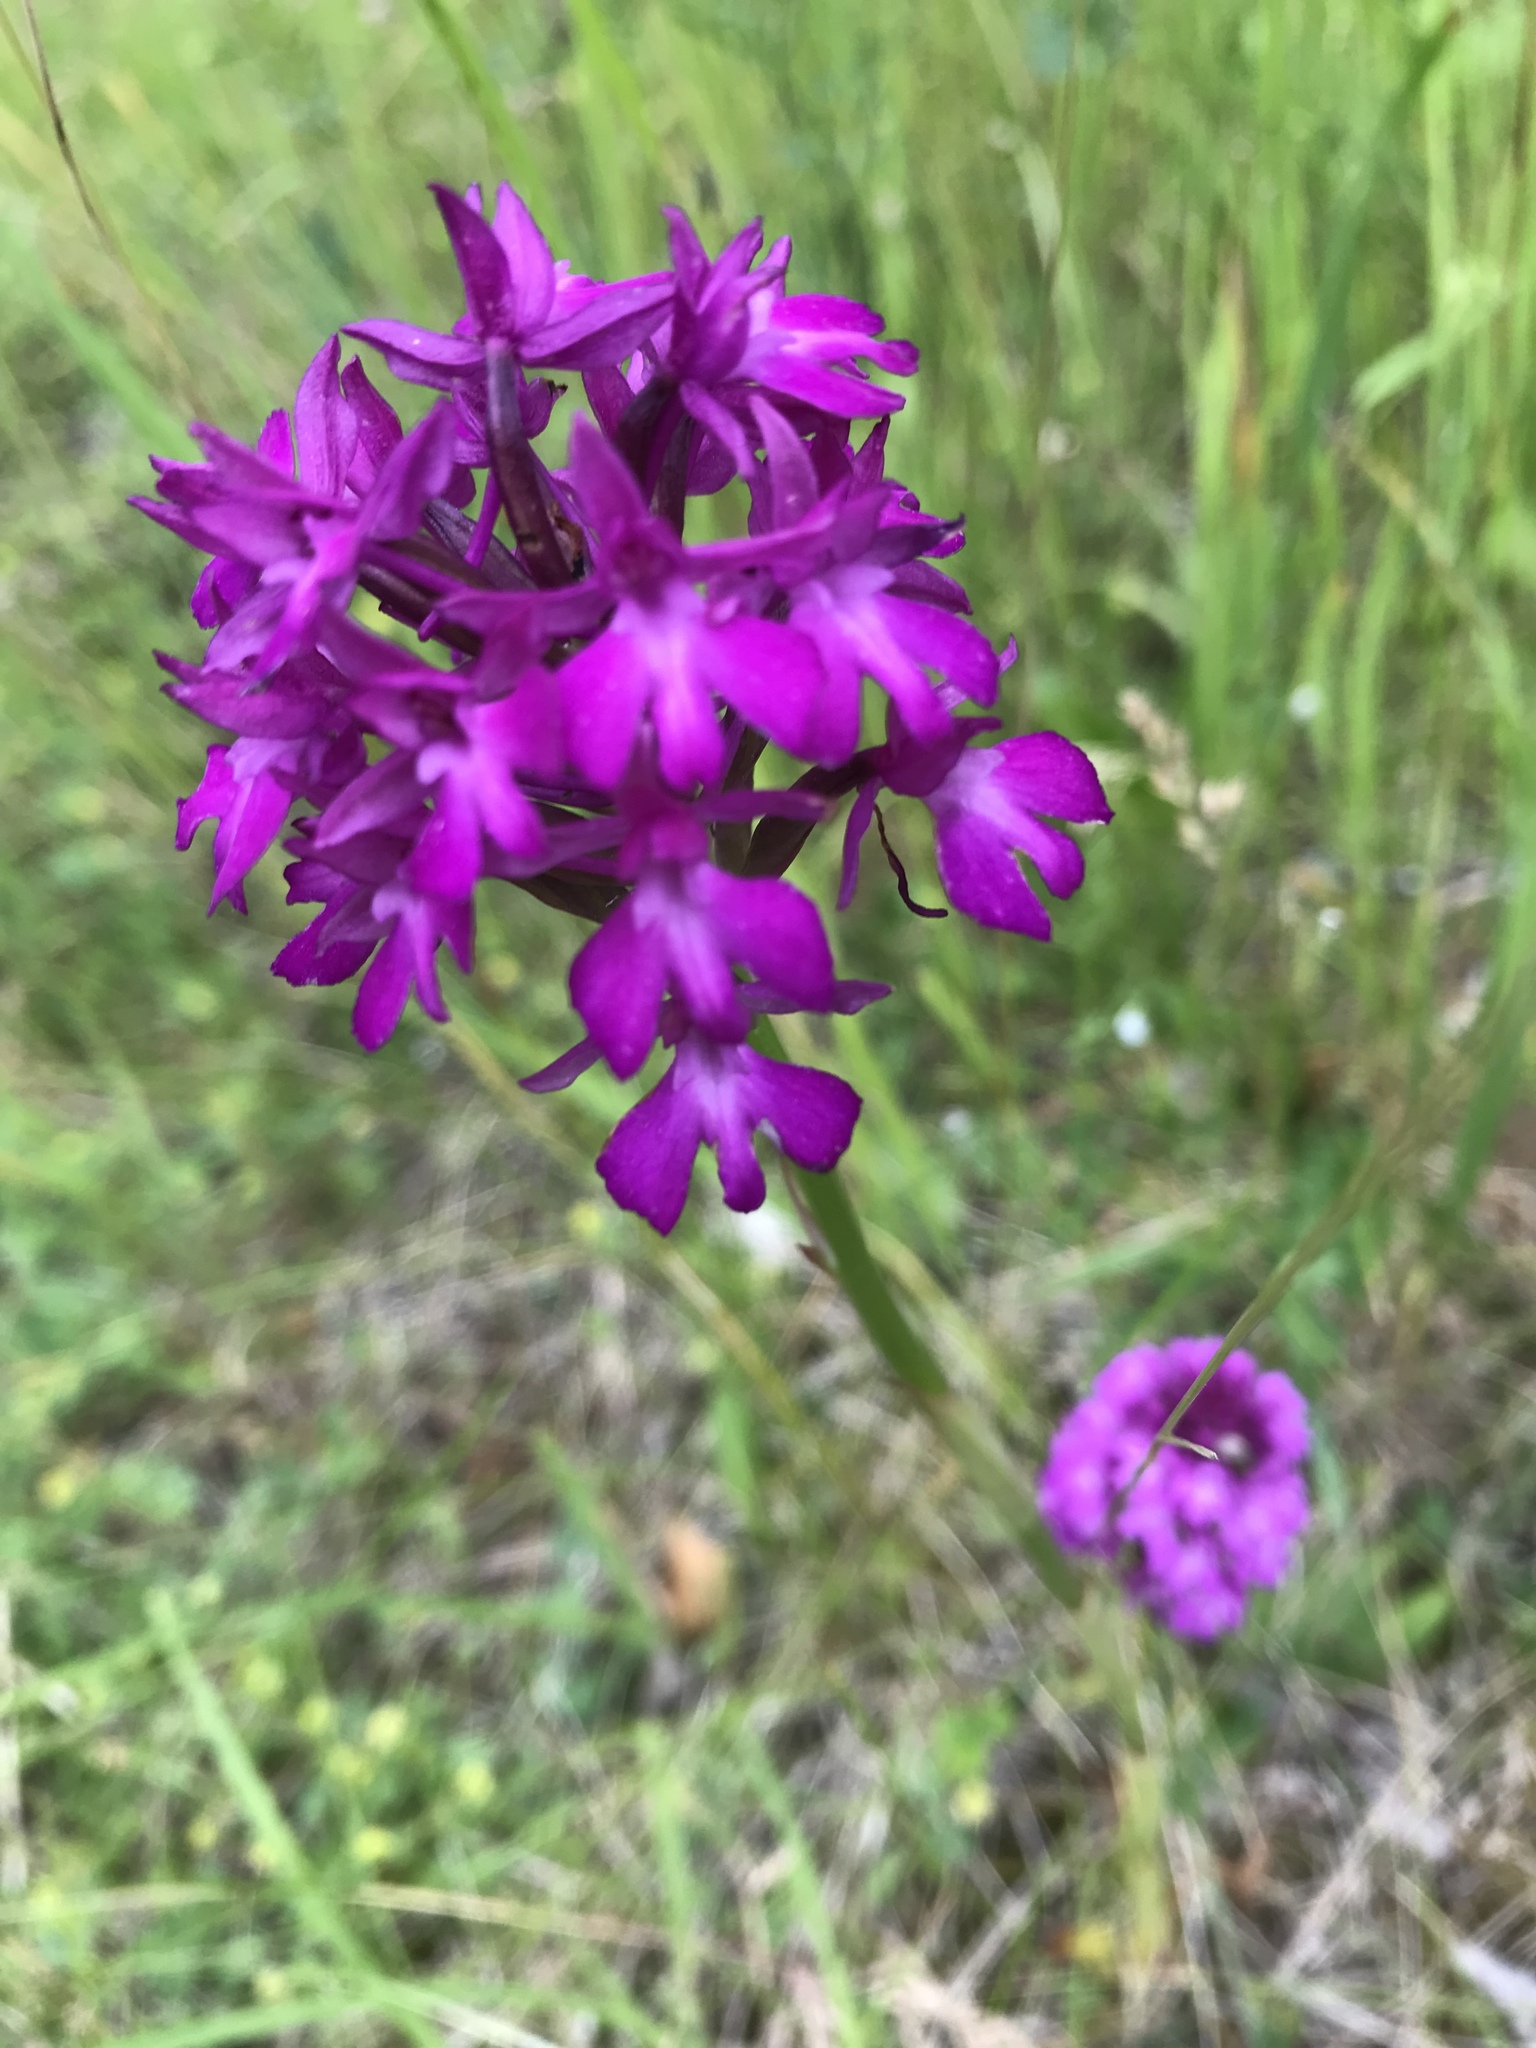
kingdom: Plantae
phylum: Tracheophyta
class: Liliopsida
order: Asparagales
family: Orchidaceae
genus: Anacamptis
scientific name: Anacamptis pyramidalis
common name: Pyramidal orchid
